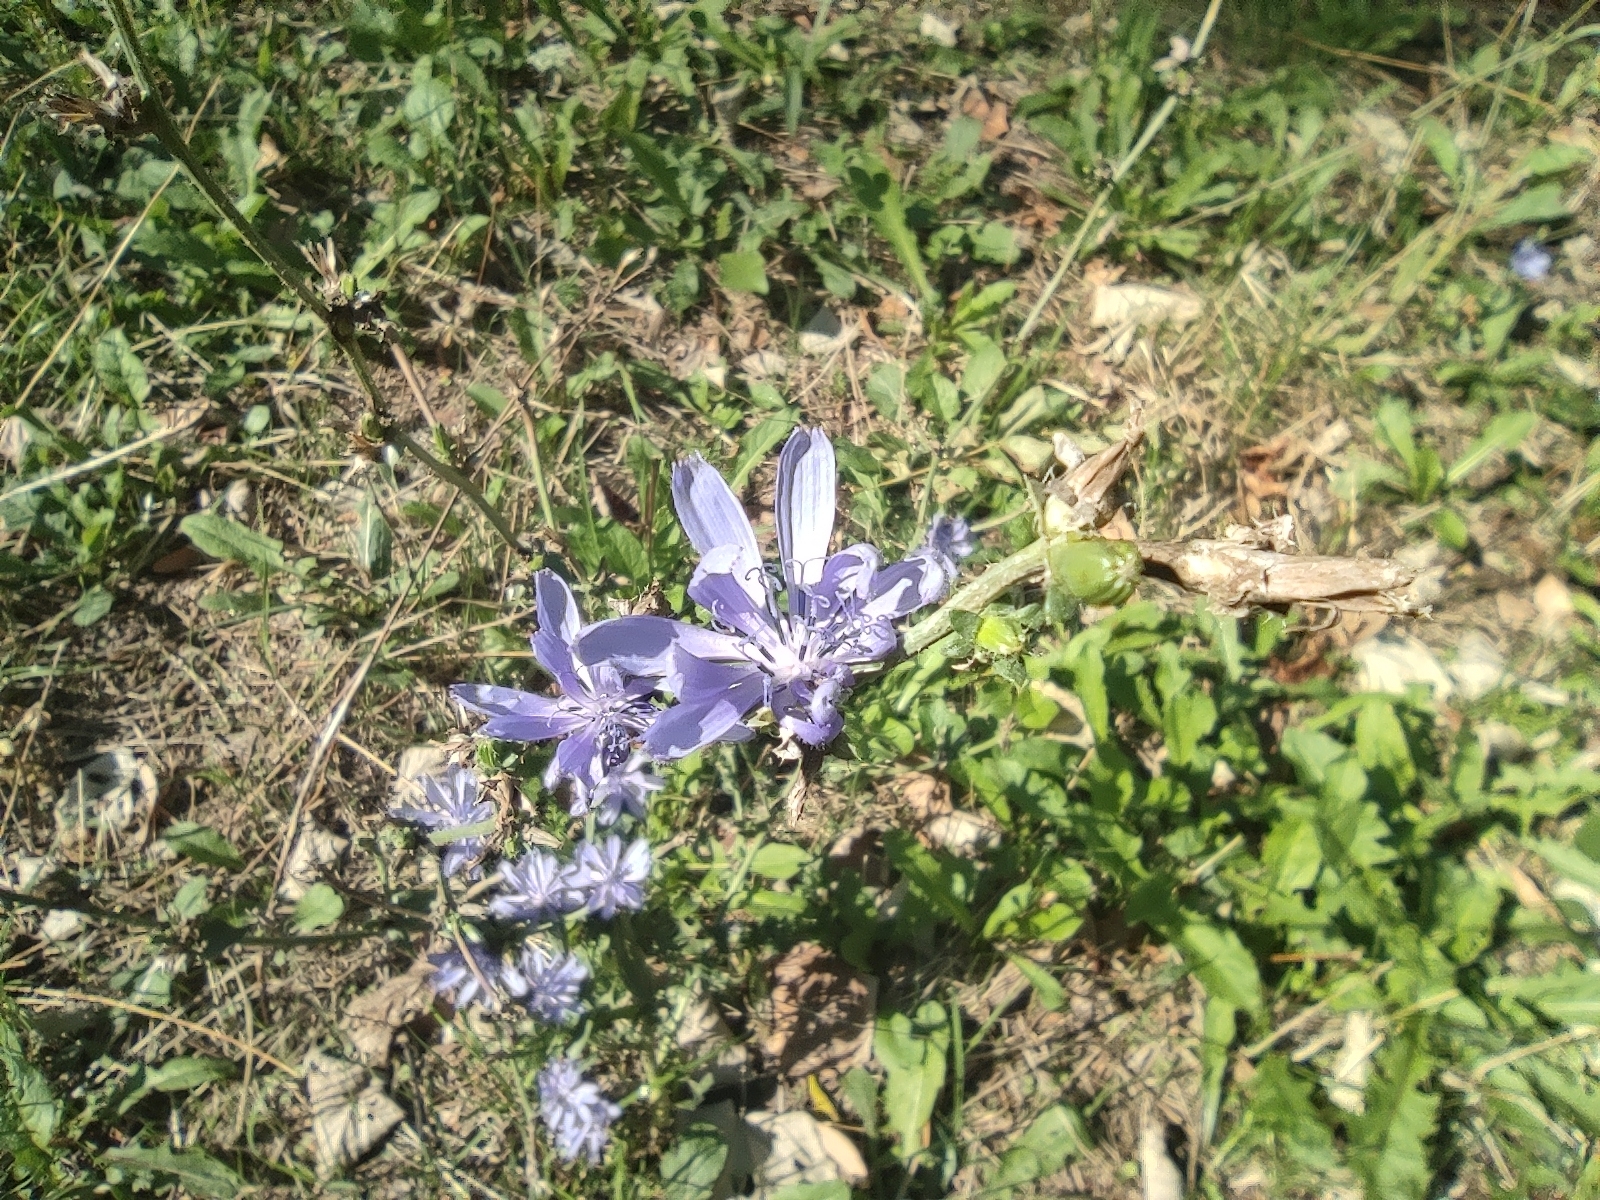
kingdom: Plantae
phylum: Tracheophyta
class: Magnoliopsida
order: Asterales
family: Asteraceae
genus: Cichorium
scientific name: Cichorium intybus
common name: Chicory
